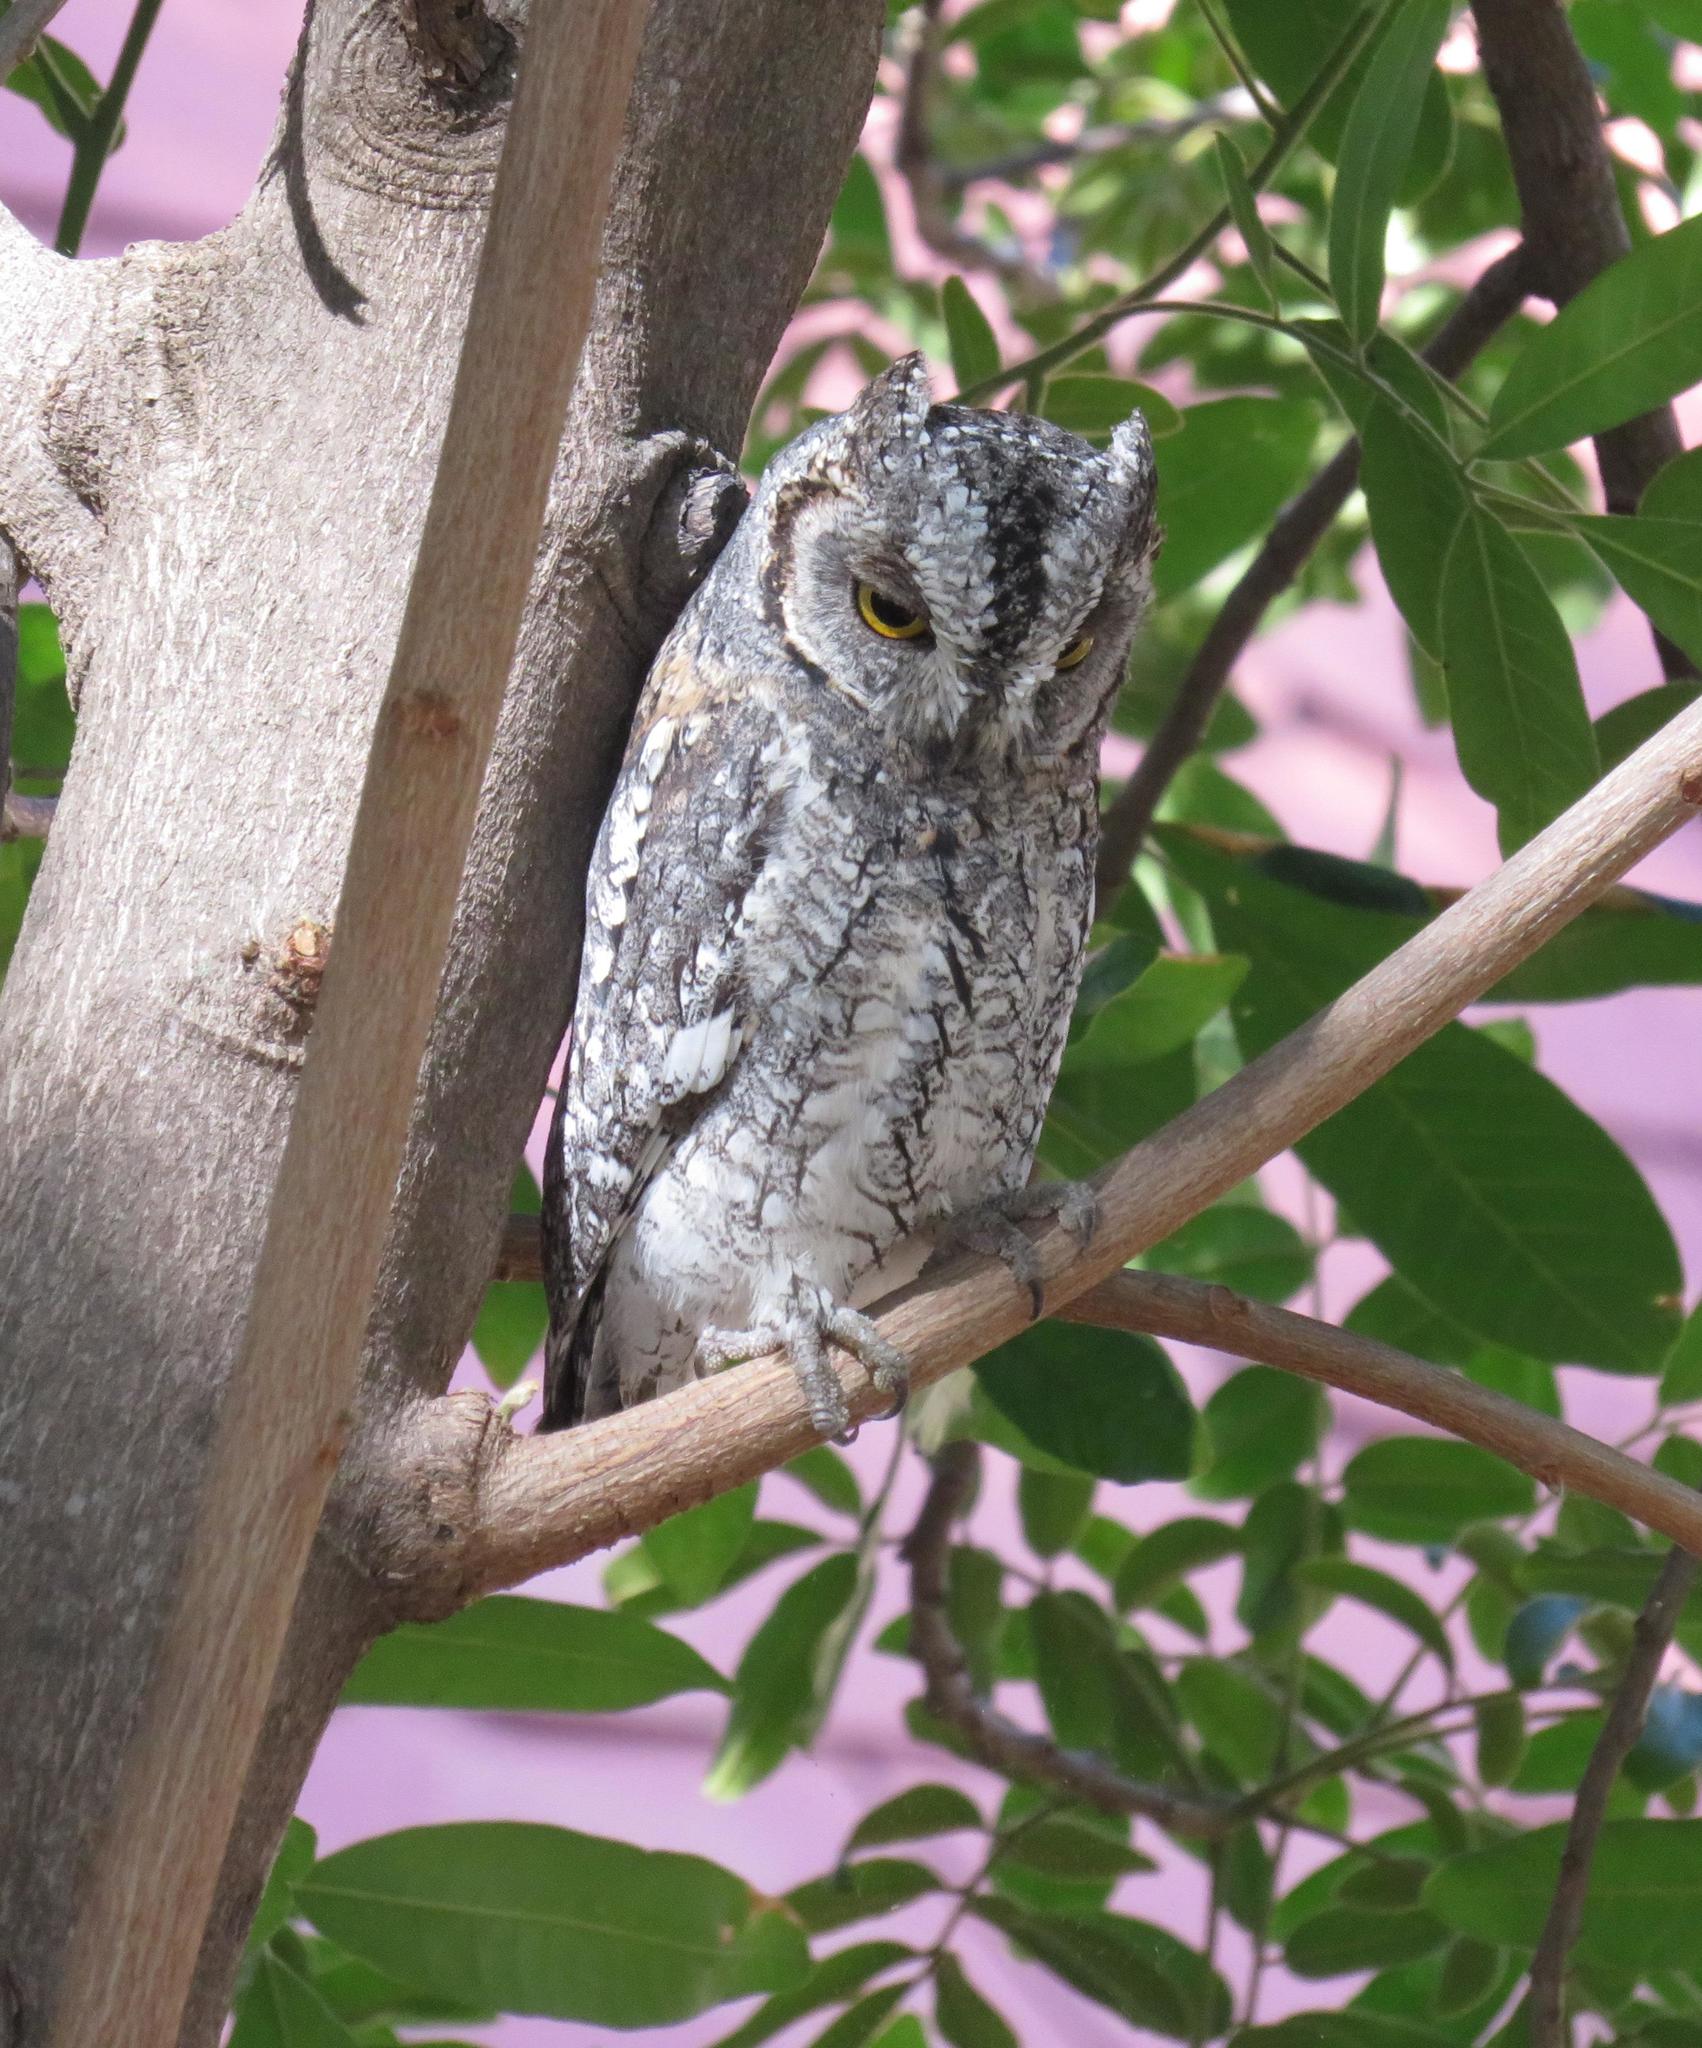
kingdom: Animalia
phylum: Chordata
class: Aves
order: Strigiformes
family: Strigidae
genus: Otus
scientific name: Otus senegalensis
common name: African scops owl
